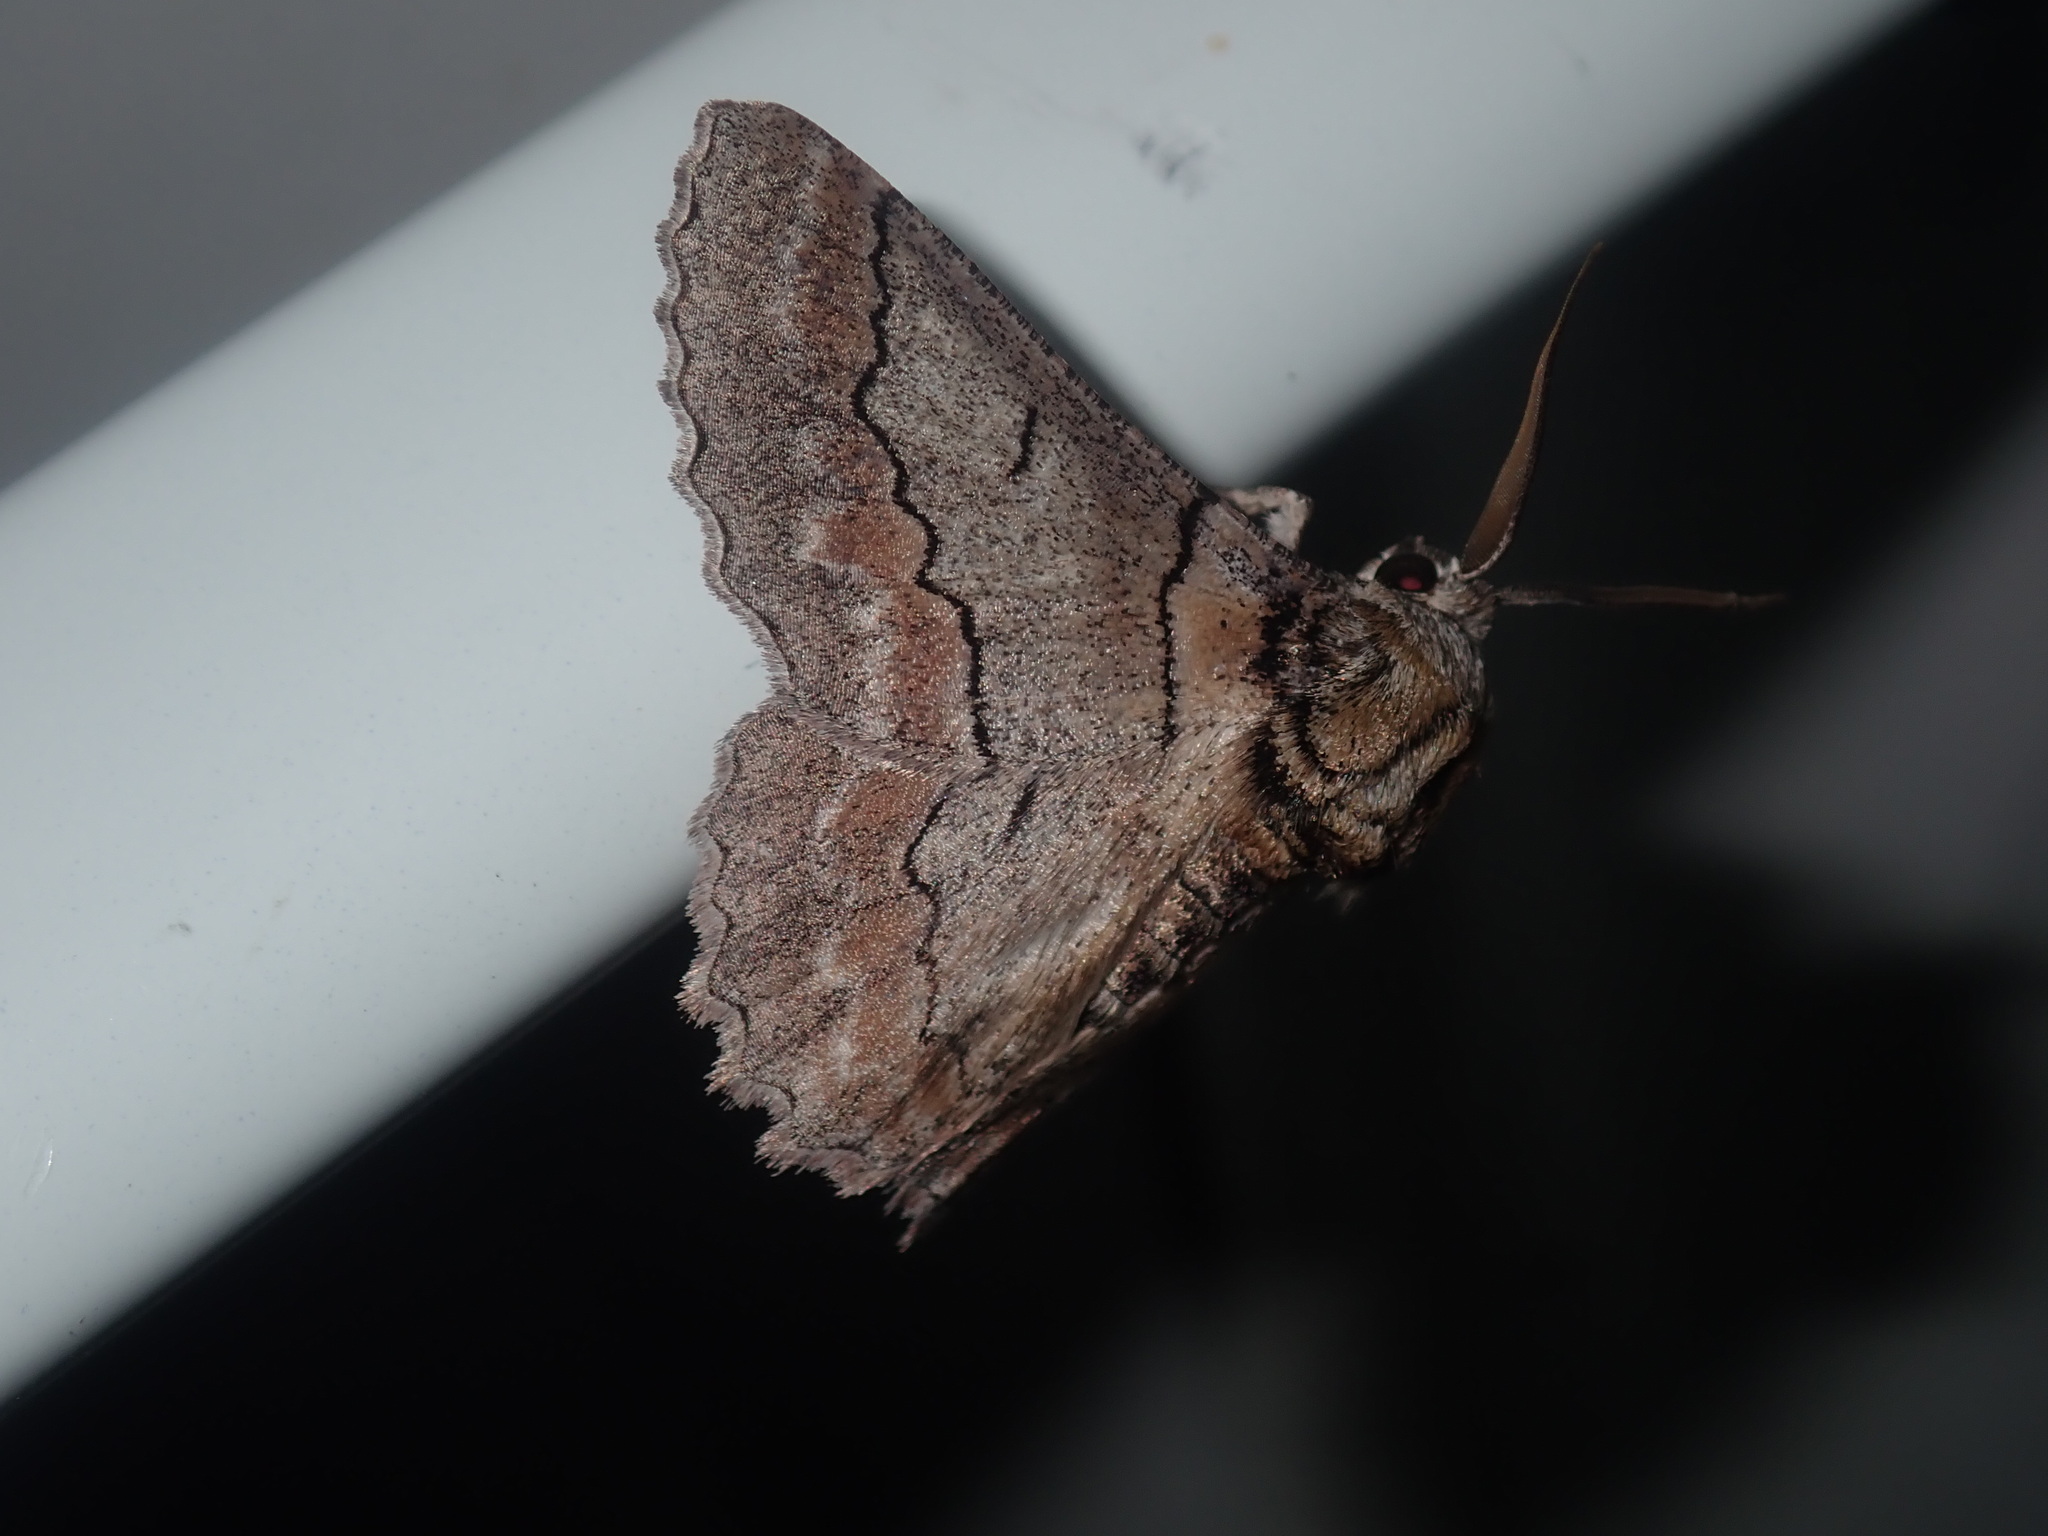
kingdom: Animalia
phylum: Arthropoda
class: Insecta
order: Lepidoptera
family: Geometridae
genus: Hypobapta
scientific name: Hypobapta tachyhalotaria
